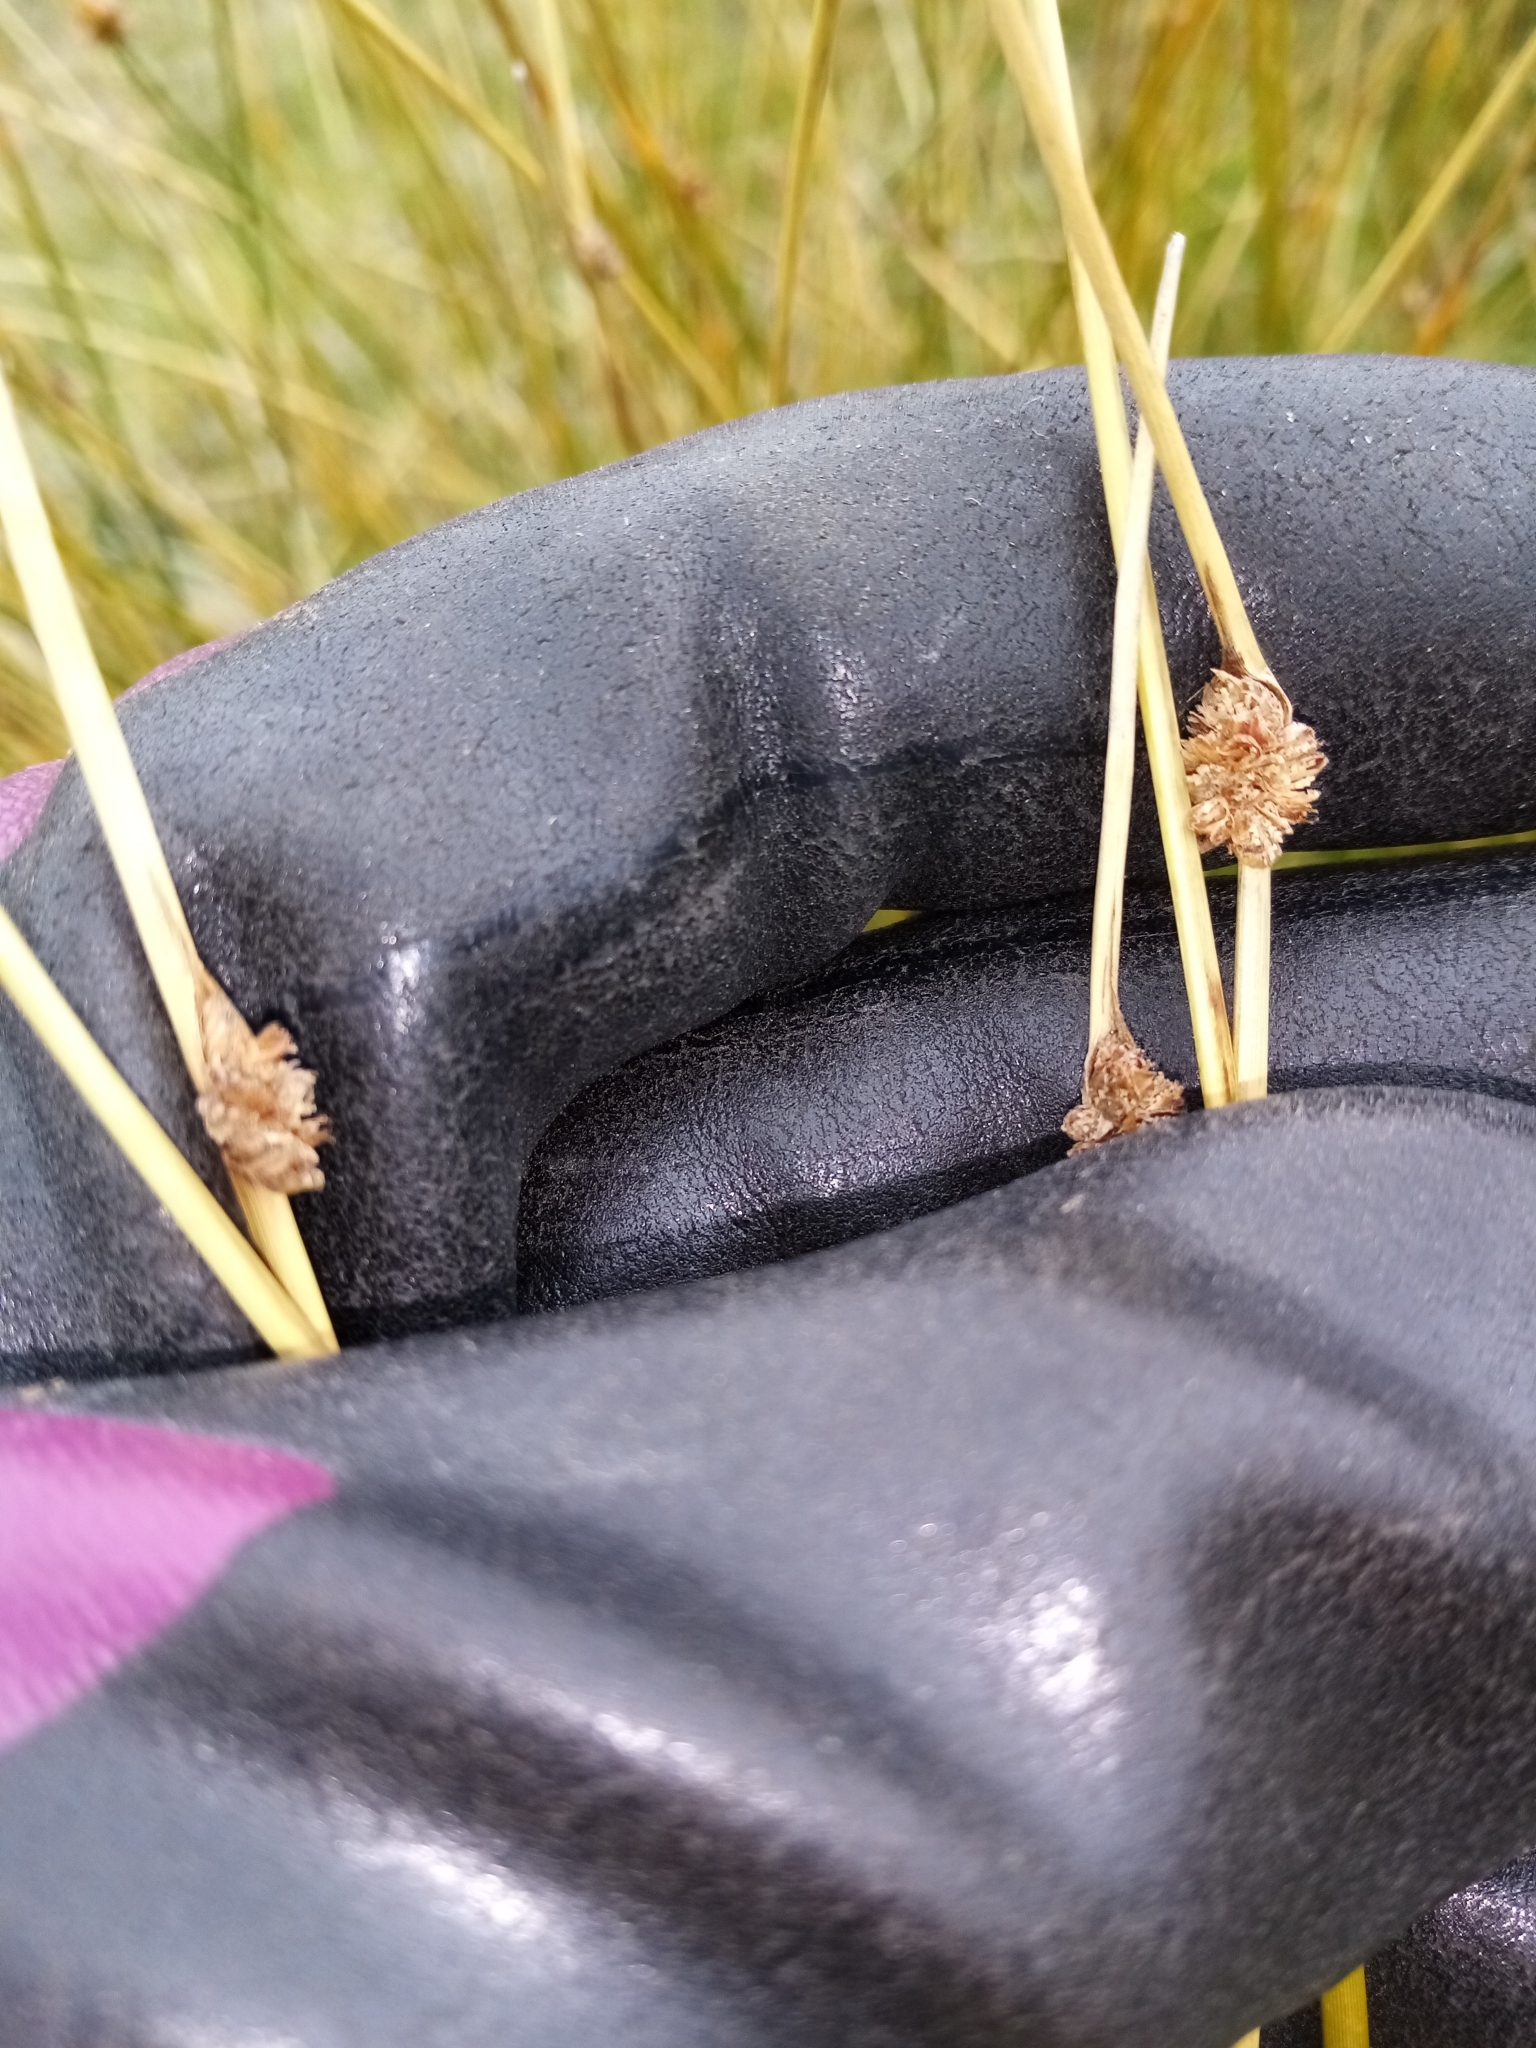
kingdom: Plantae
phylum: Tracheophyta
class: Liliopsida
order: Poales
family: Cyperaceae
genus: Ficinia
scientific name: Ficinia nodosa
